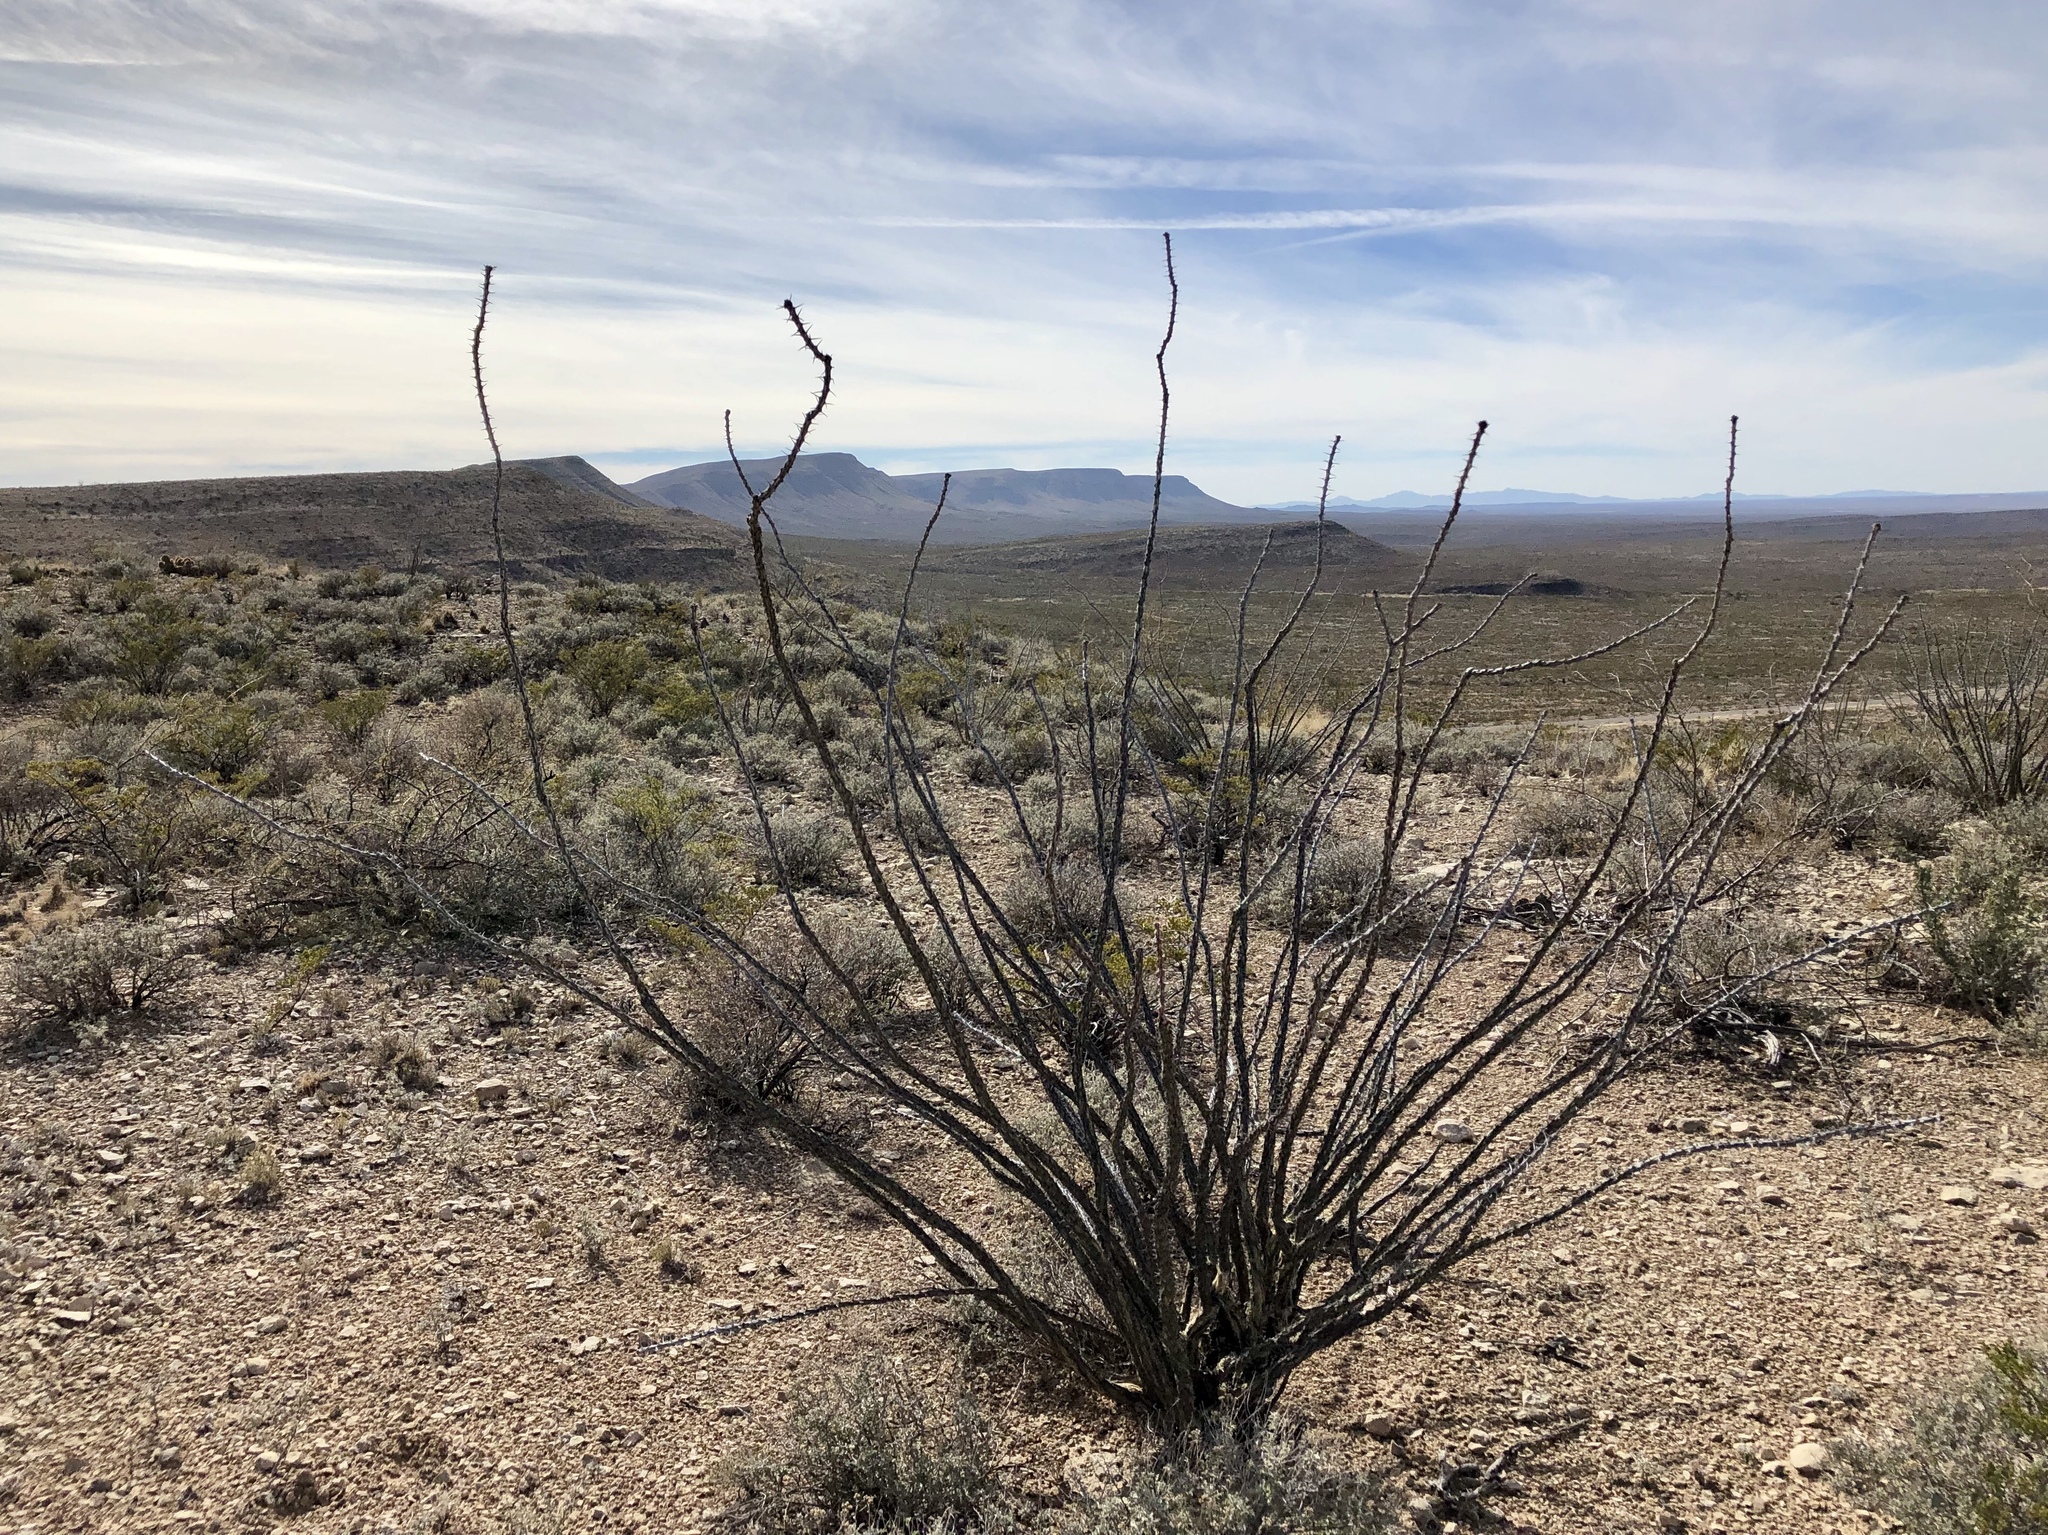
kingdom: Plantae
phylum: Tracheophyta
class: Magnoliopsida
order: Ericales
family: Fouquieriaceae
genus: Fouquieria
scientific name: Fouquieria splendens
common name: Vine-cactus
